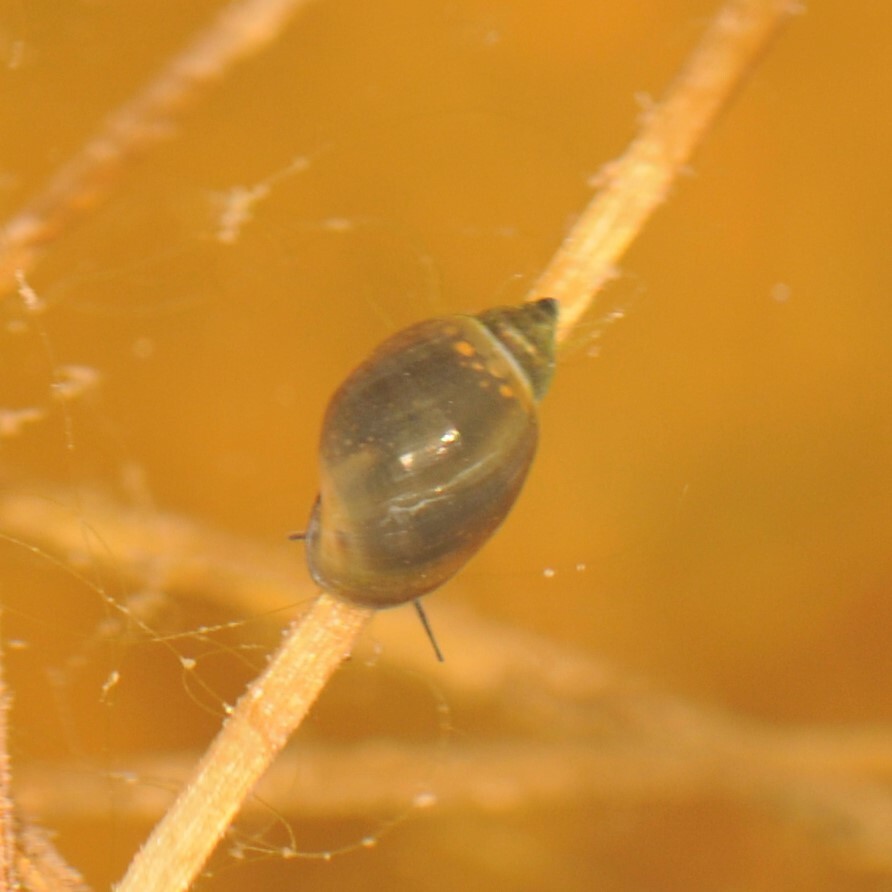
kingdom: Animalia
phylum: Mollusca
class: Gastropoda
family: Physidae
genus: Physella
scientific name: Physella
